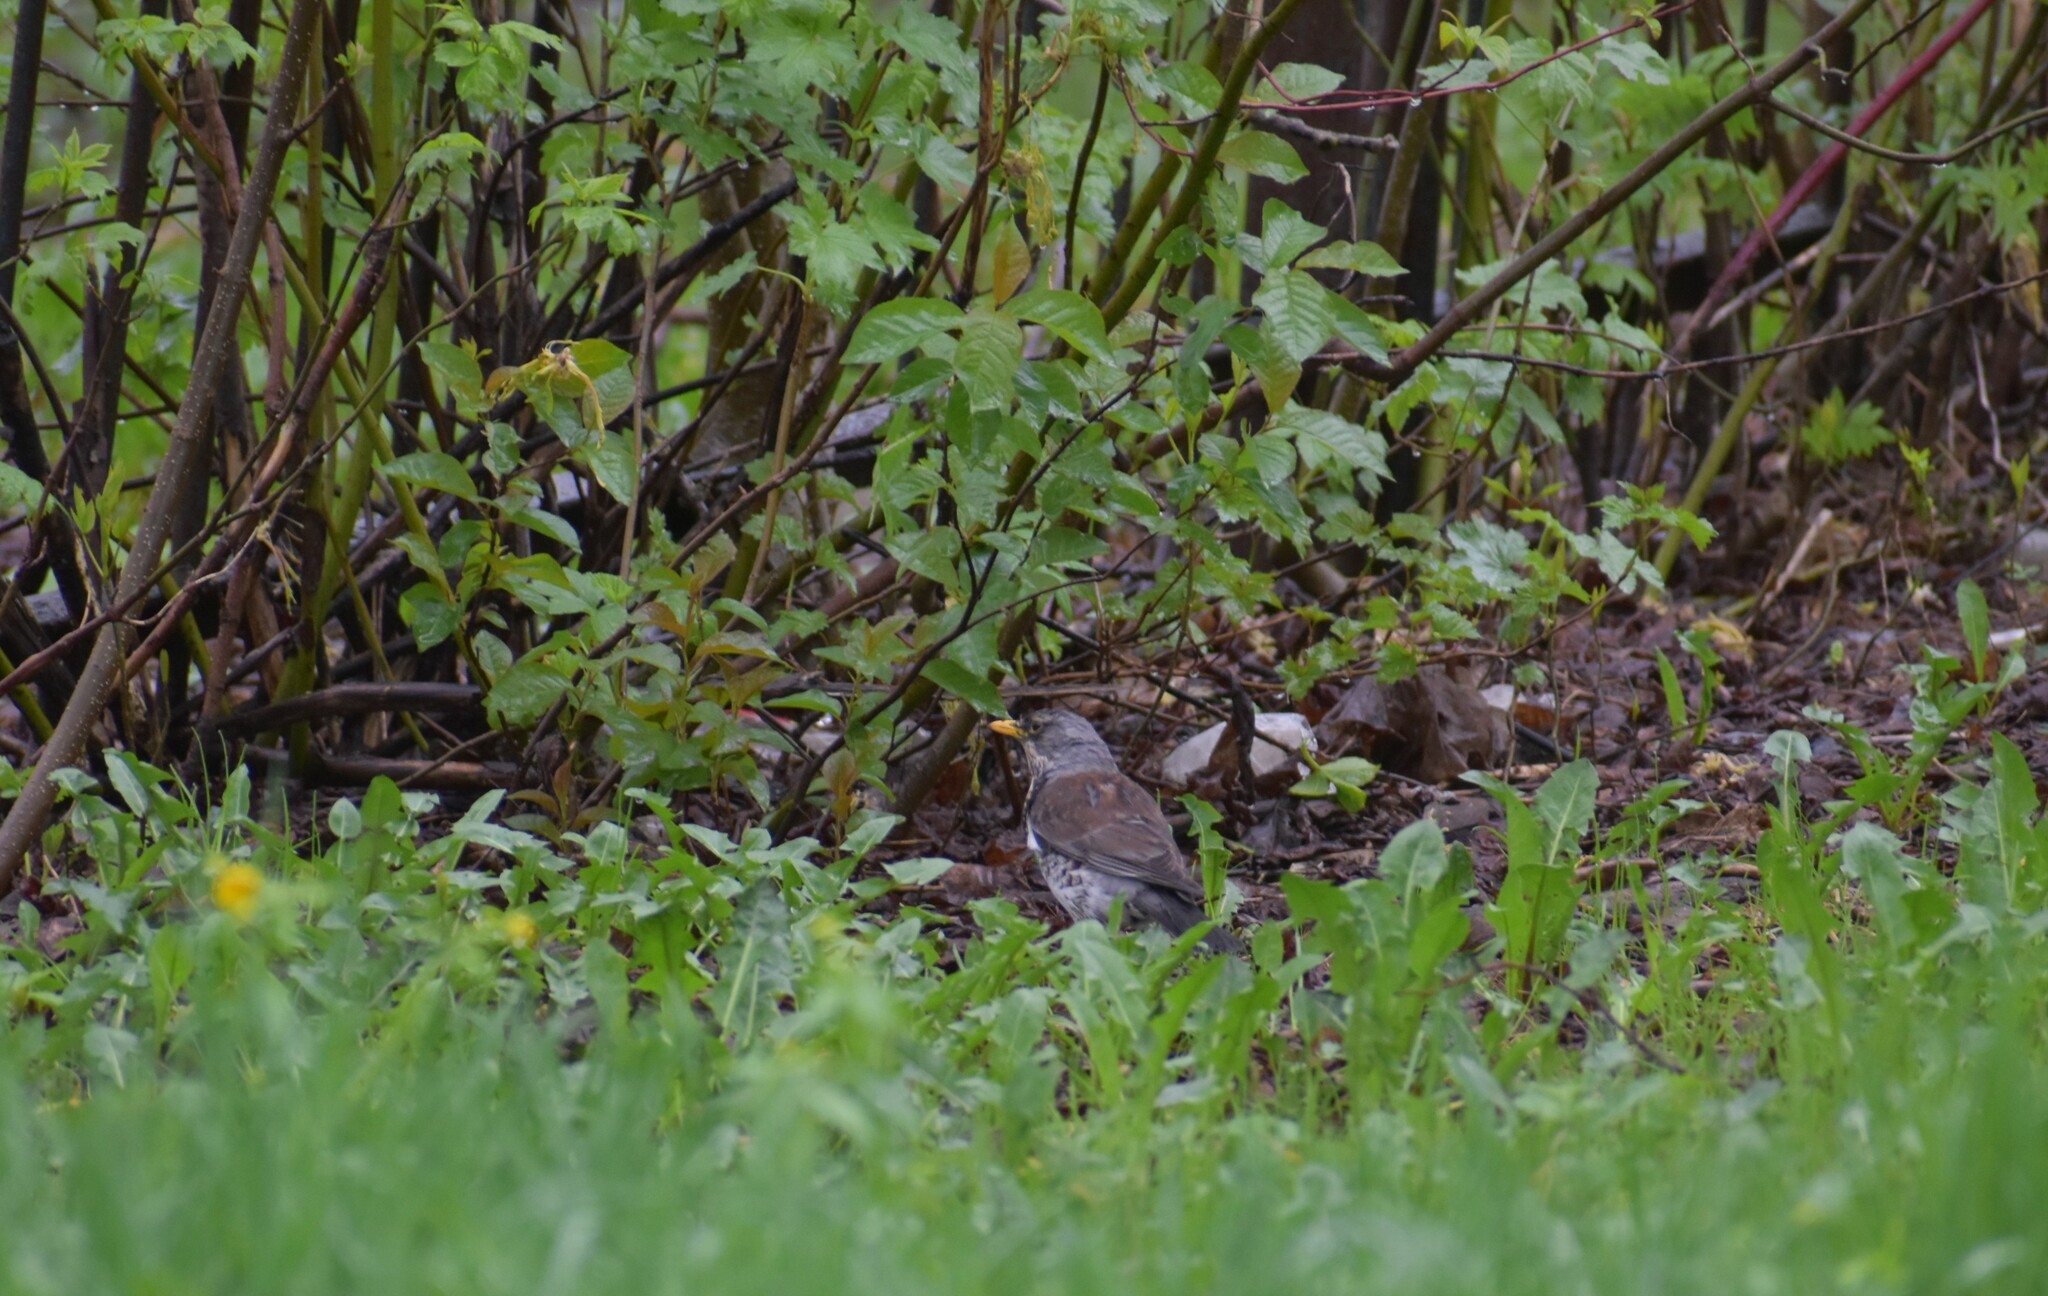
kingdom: Animalia
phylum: Chordata
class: Aves
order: Passeriformes
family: Turdidae
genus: Turdus
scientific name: Turdus pilaris
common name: Fieldfare
